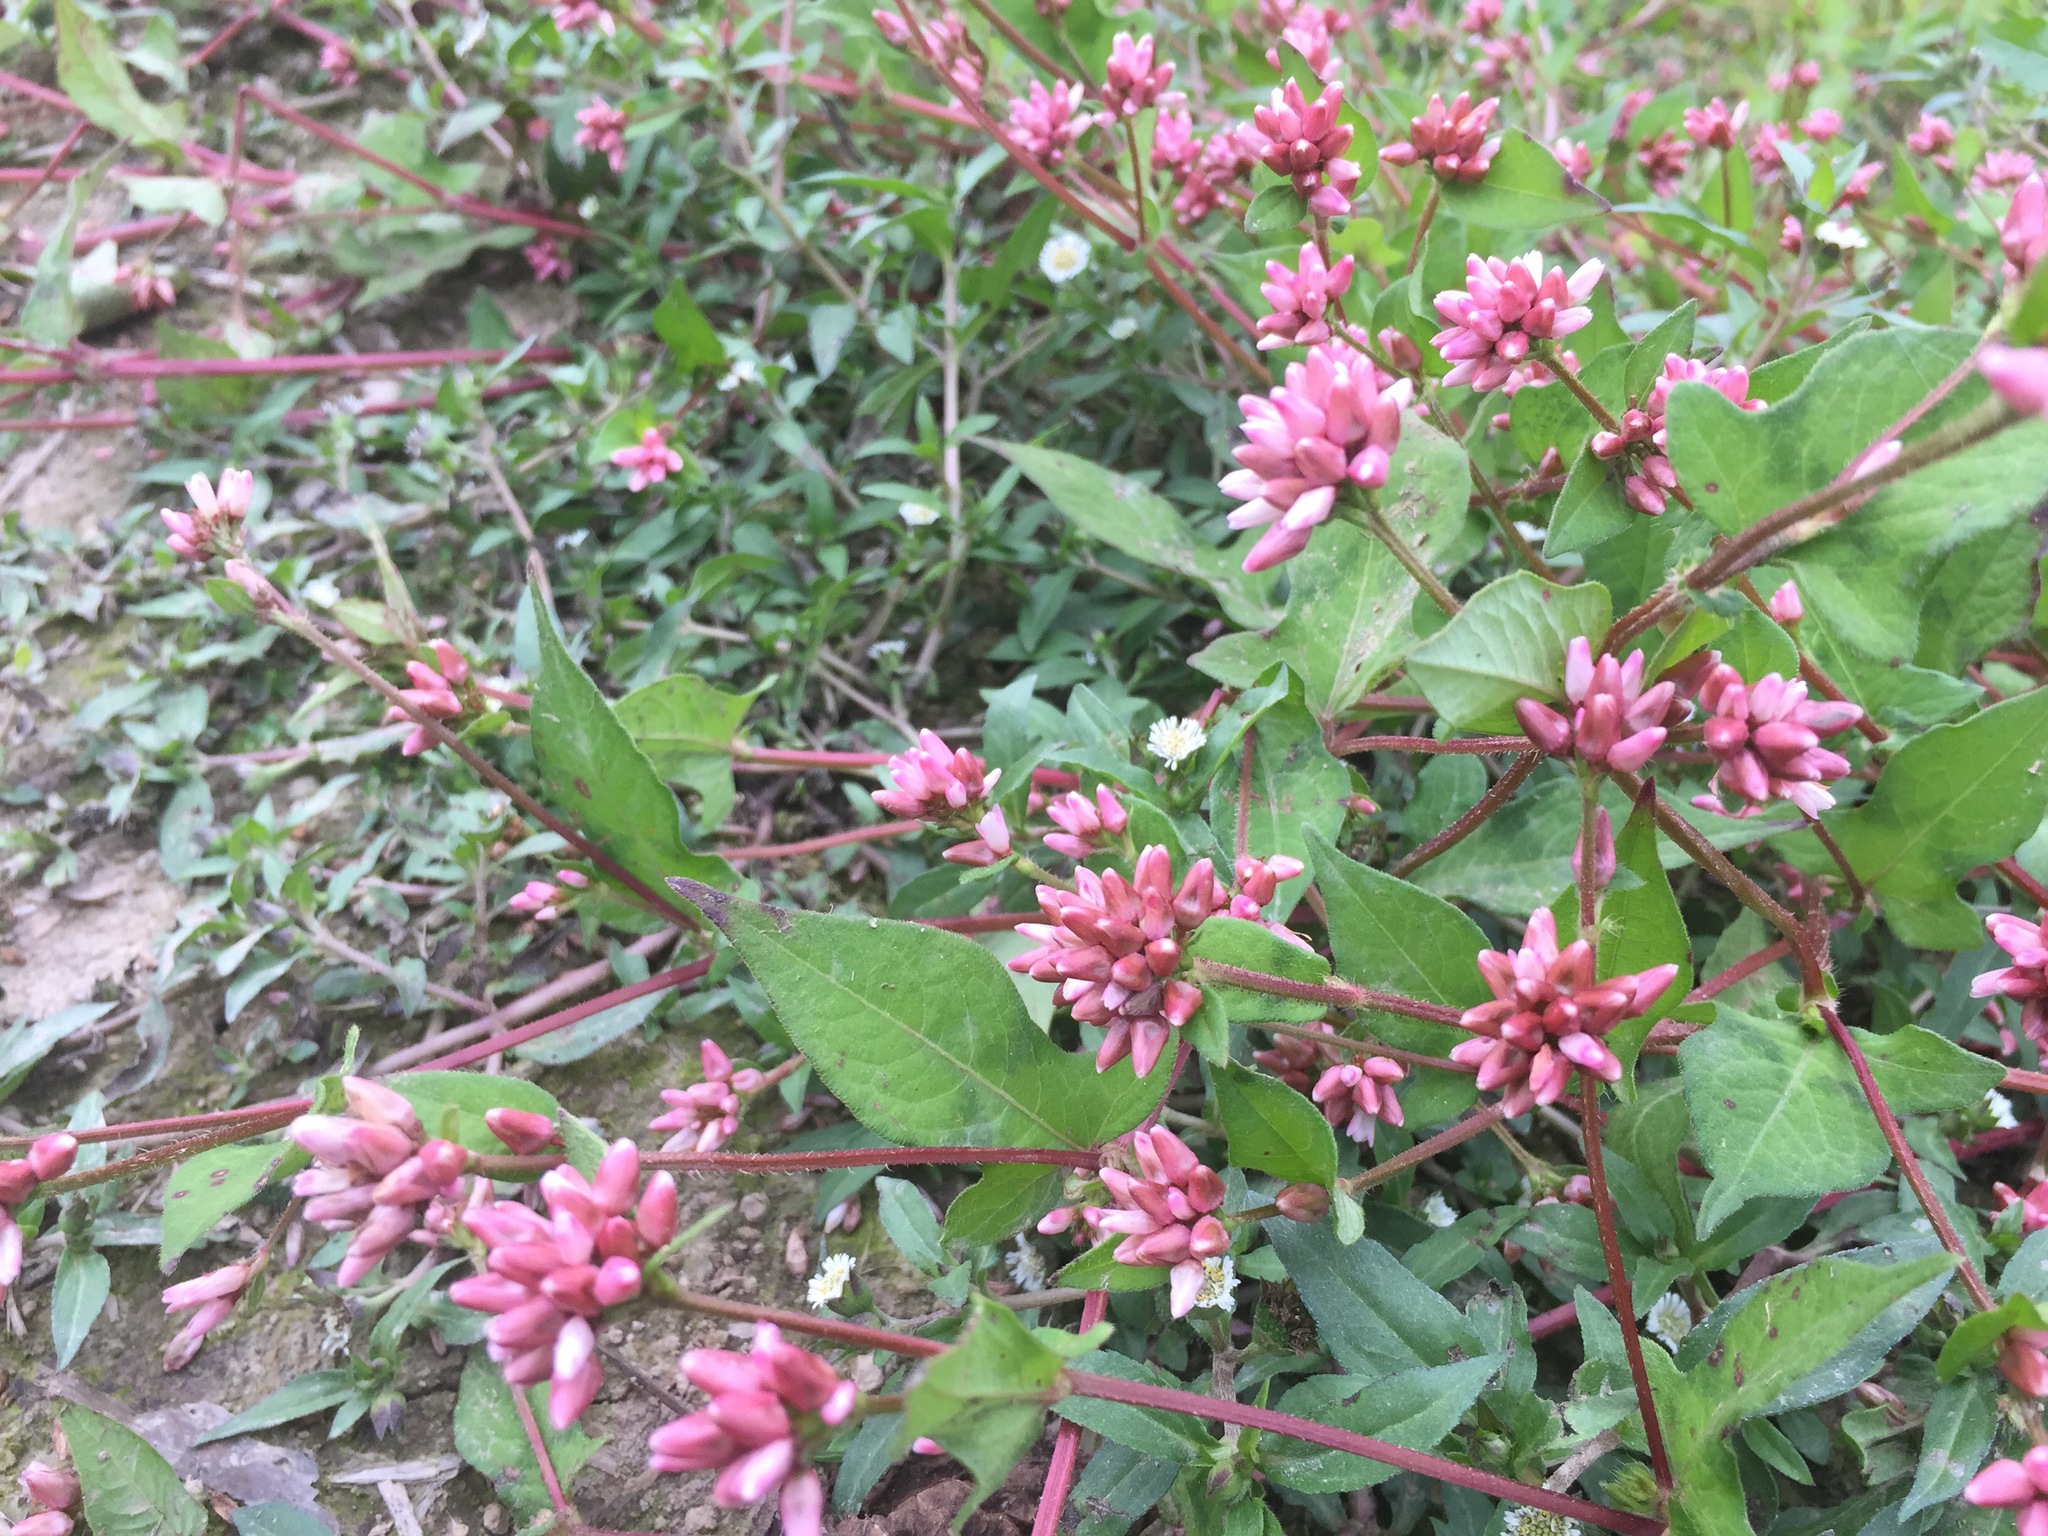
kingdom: Plantae
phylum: Tracheophyta
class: Magnoliopsida
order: Caryophyllales
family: Polygonaceae
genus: Persicaria
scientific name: Persicaria thunbergii
